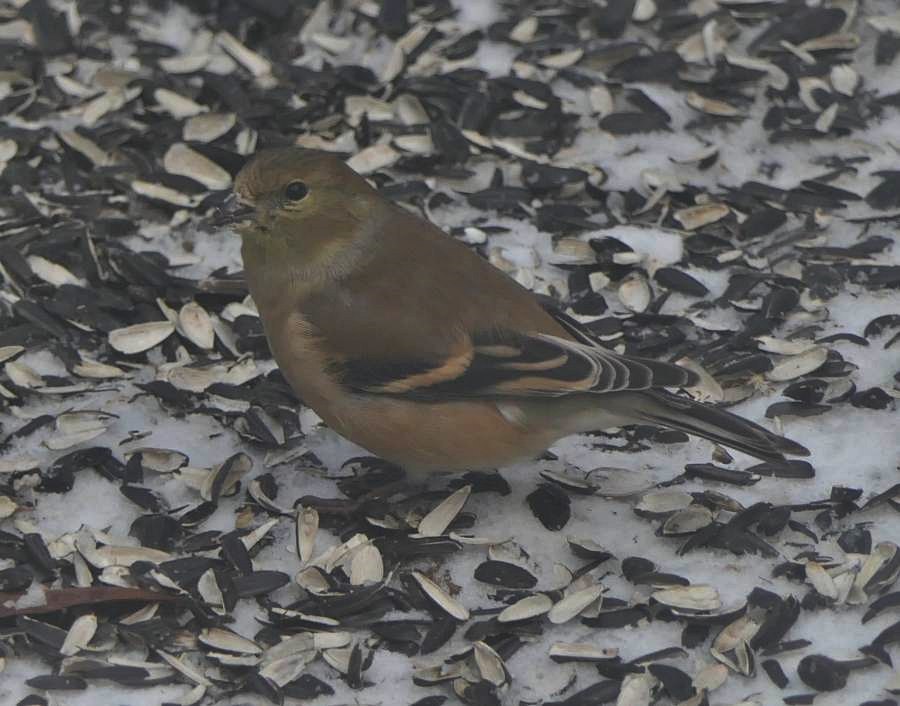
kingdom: Animalia
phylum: Chordata
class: Aves
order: Passeriformes
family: Fringillidae
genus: Spinus
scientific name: Spinus tristis
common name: American goldfinch
